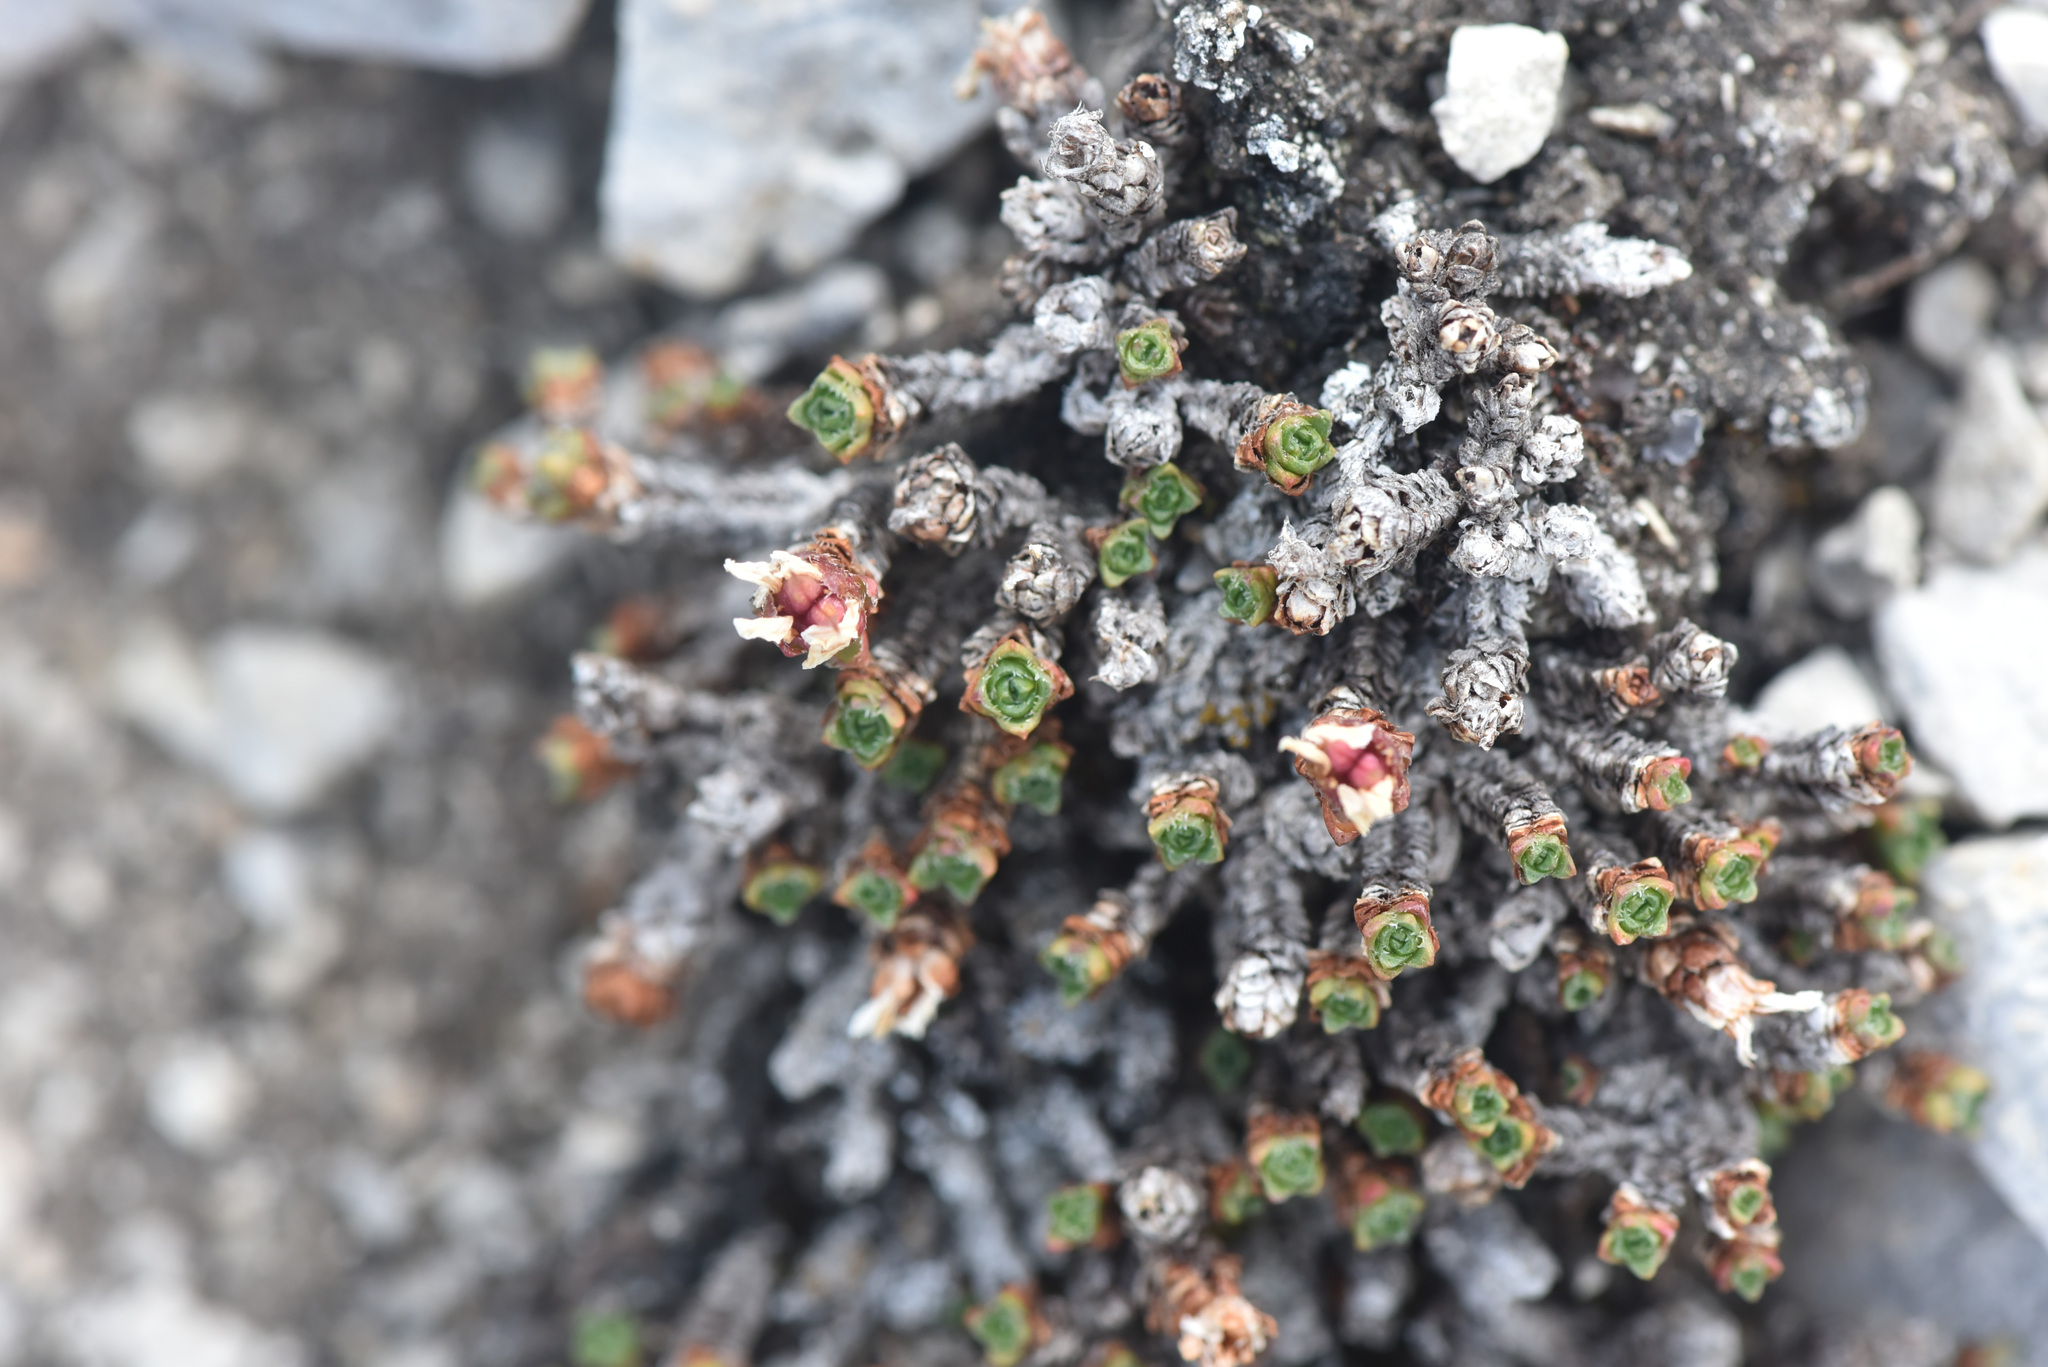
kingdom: Plantae
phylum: Tracheophyta
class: Magnoliopsida
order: Saxifragales
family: Saxifragaceae
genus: Saxifraga
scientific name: Saxifraga oppositifolia
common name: Purple saxifrage
